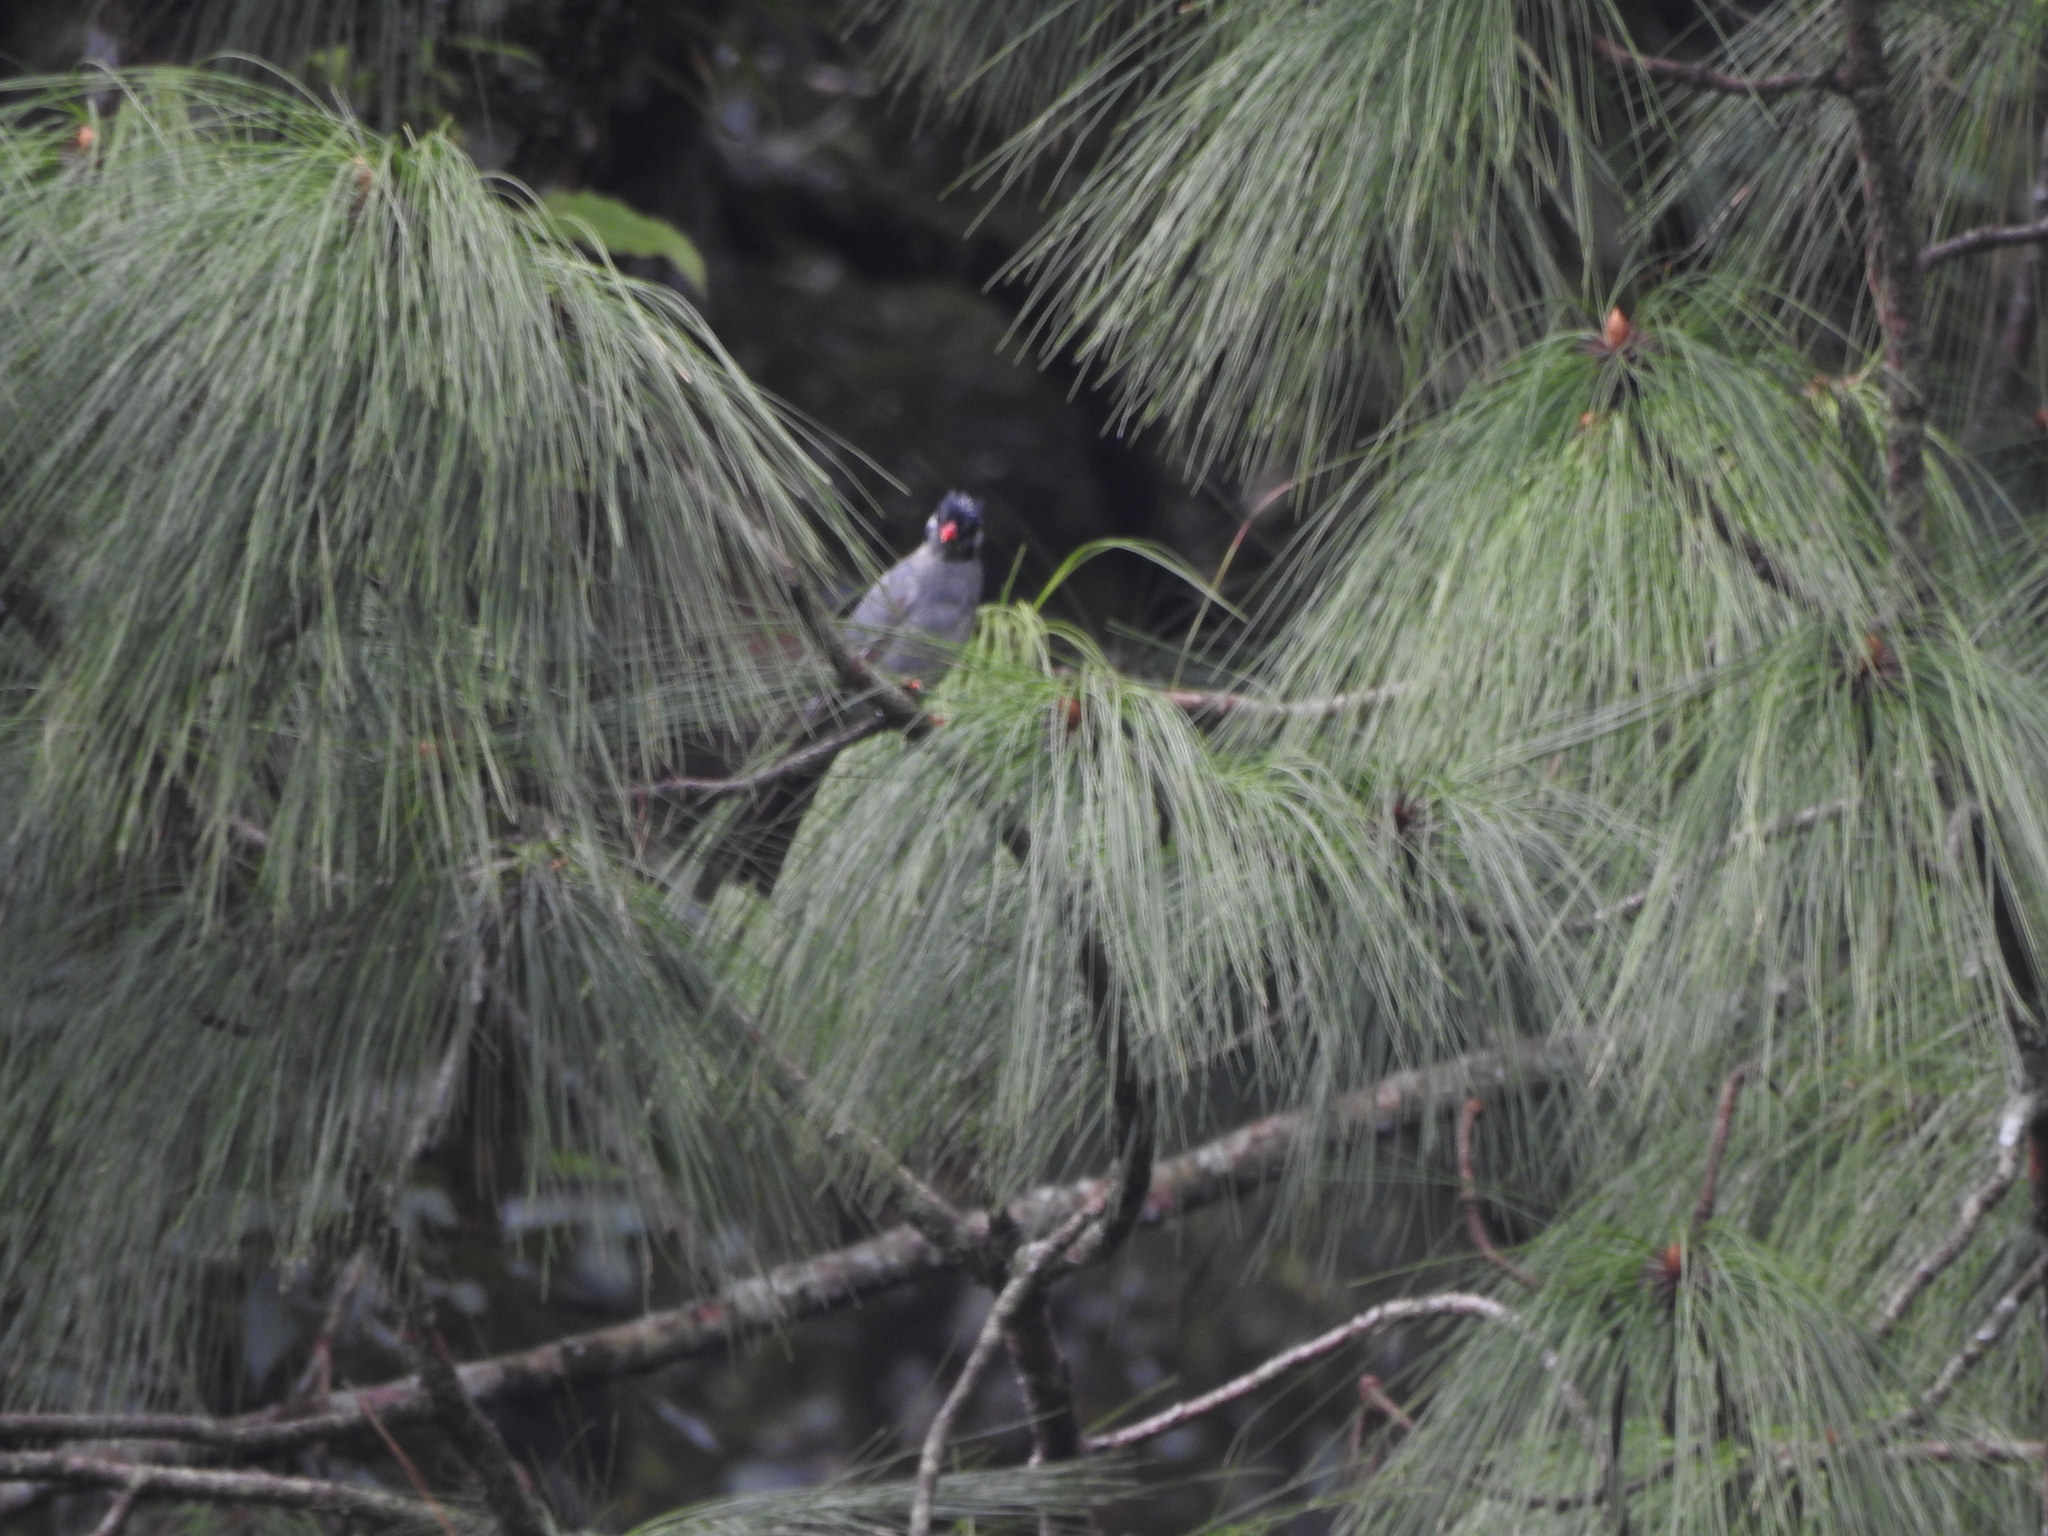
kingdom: Animalia
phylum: Chordata
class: Aves
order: Passeriformes
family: Pycnonotidae
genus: Hypsipetes
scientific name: Hypsipetes leucocephalus
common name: Black bulbul
